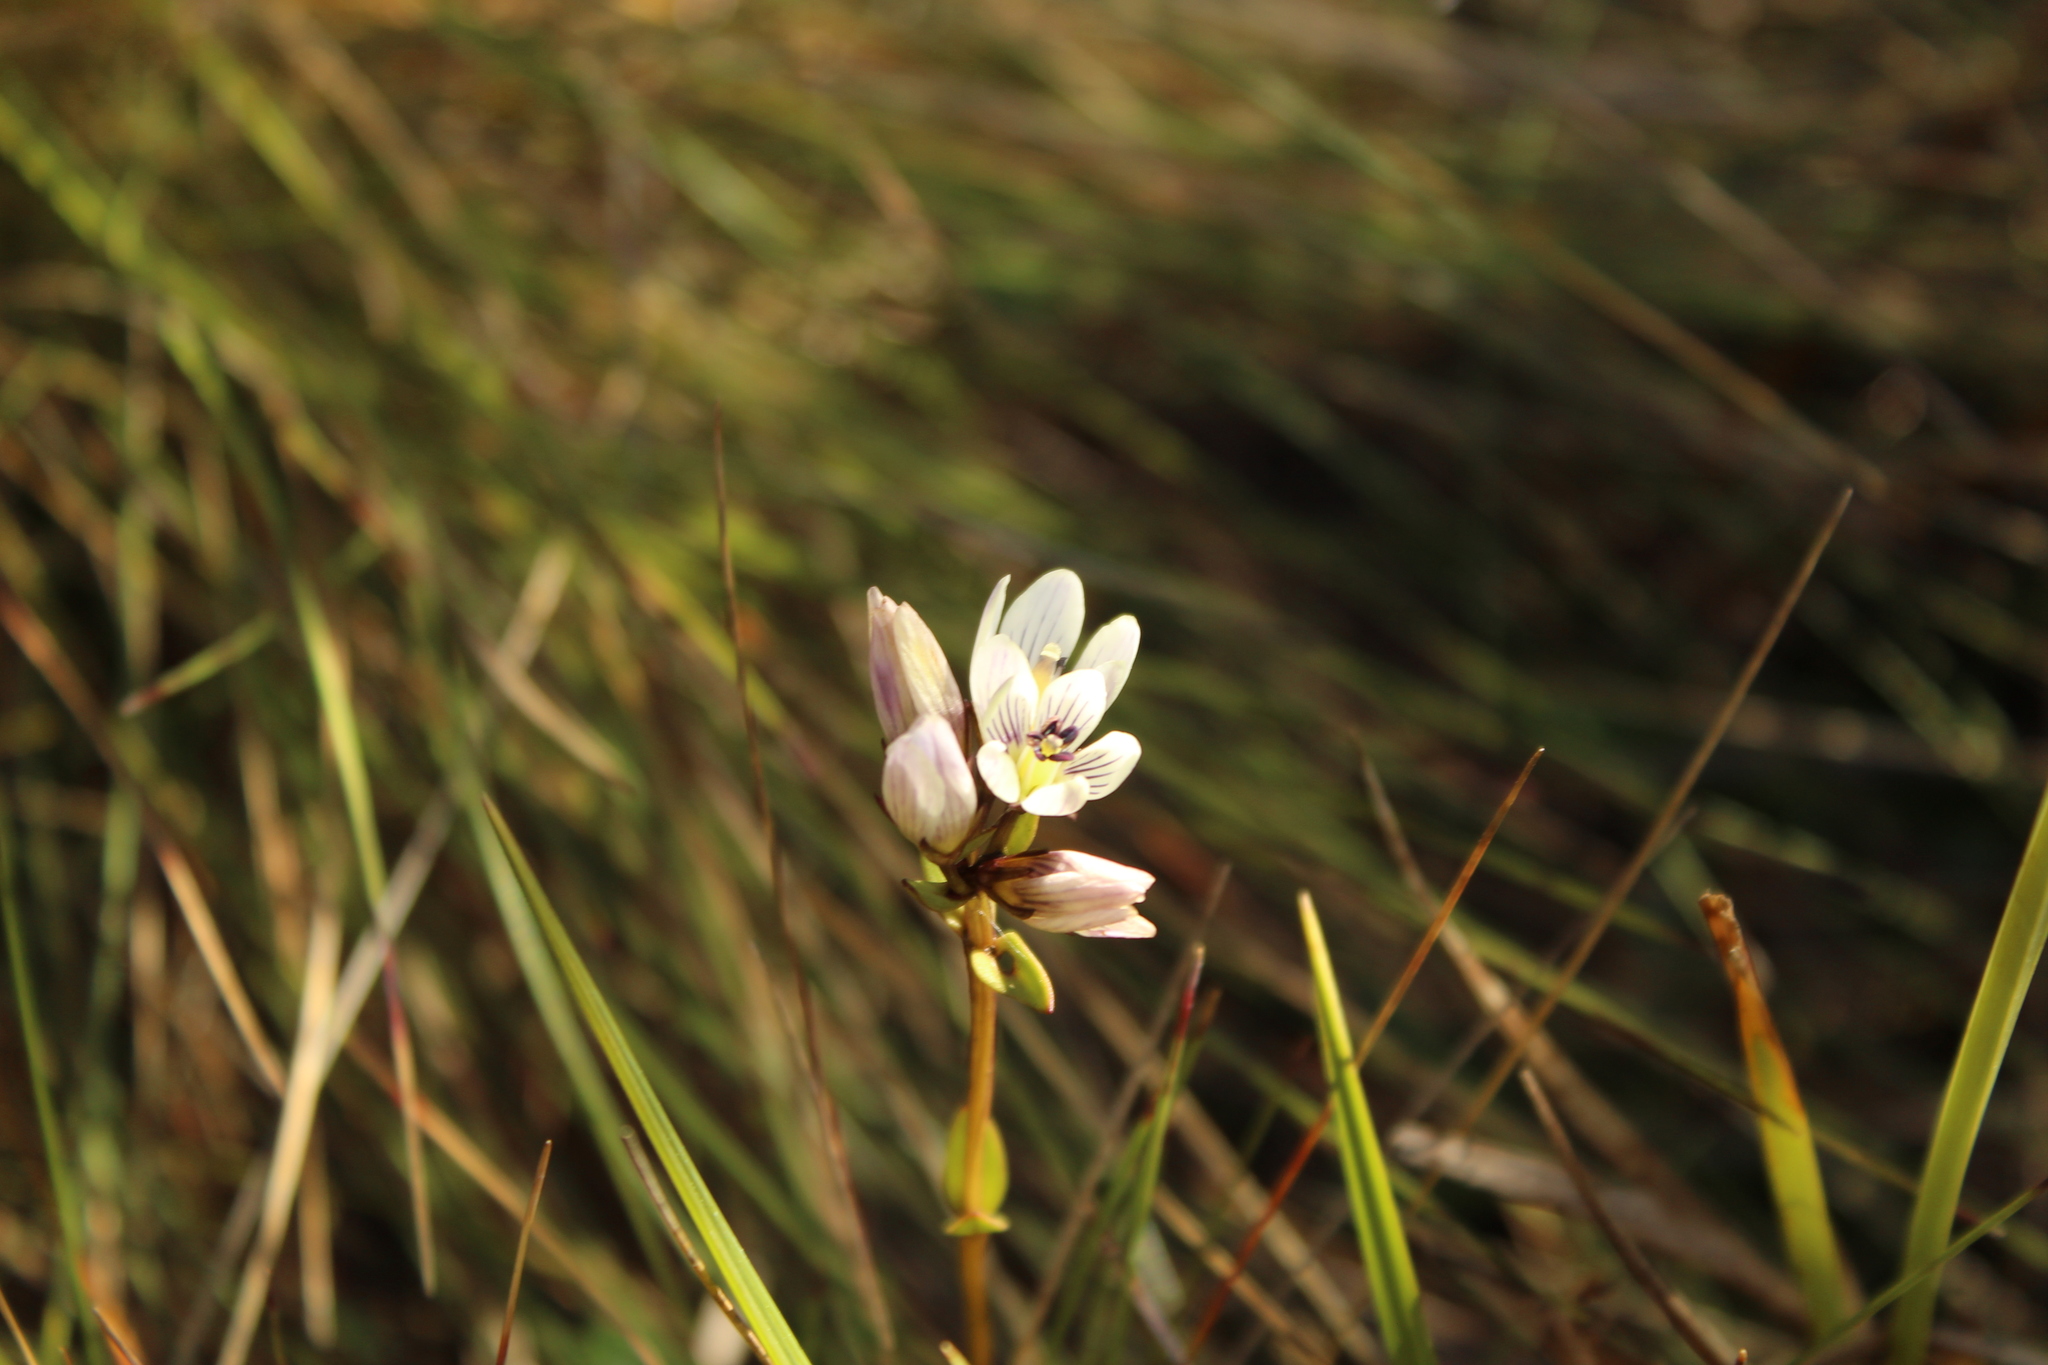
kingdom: Plantae
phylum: Tracheophyta
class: Magnoliopsida
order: Gentianales
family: Gentianaceae
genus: Gentianella
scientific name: Gentianella corymbosa
